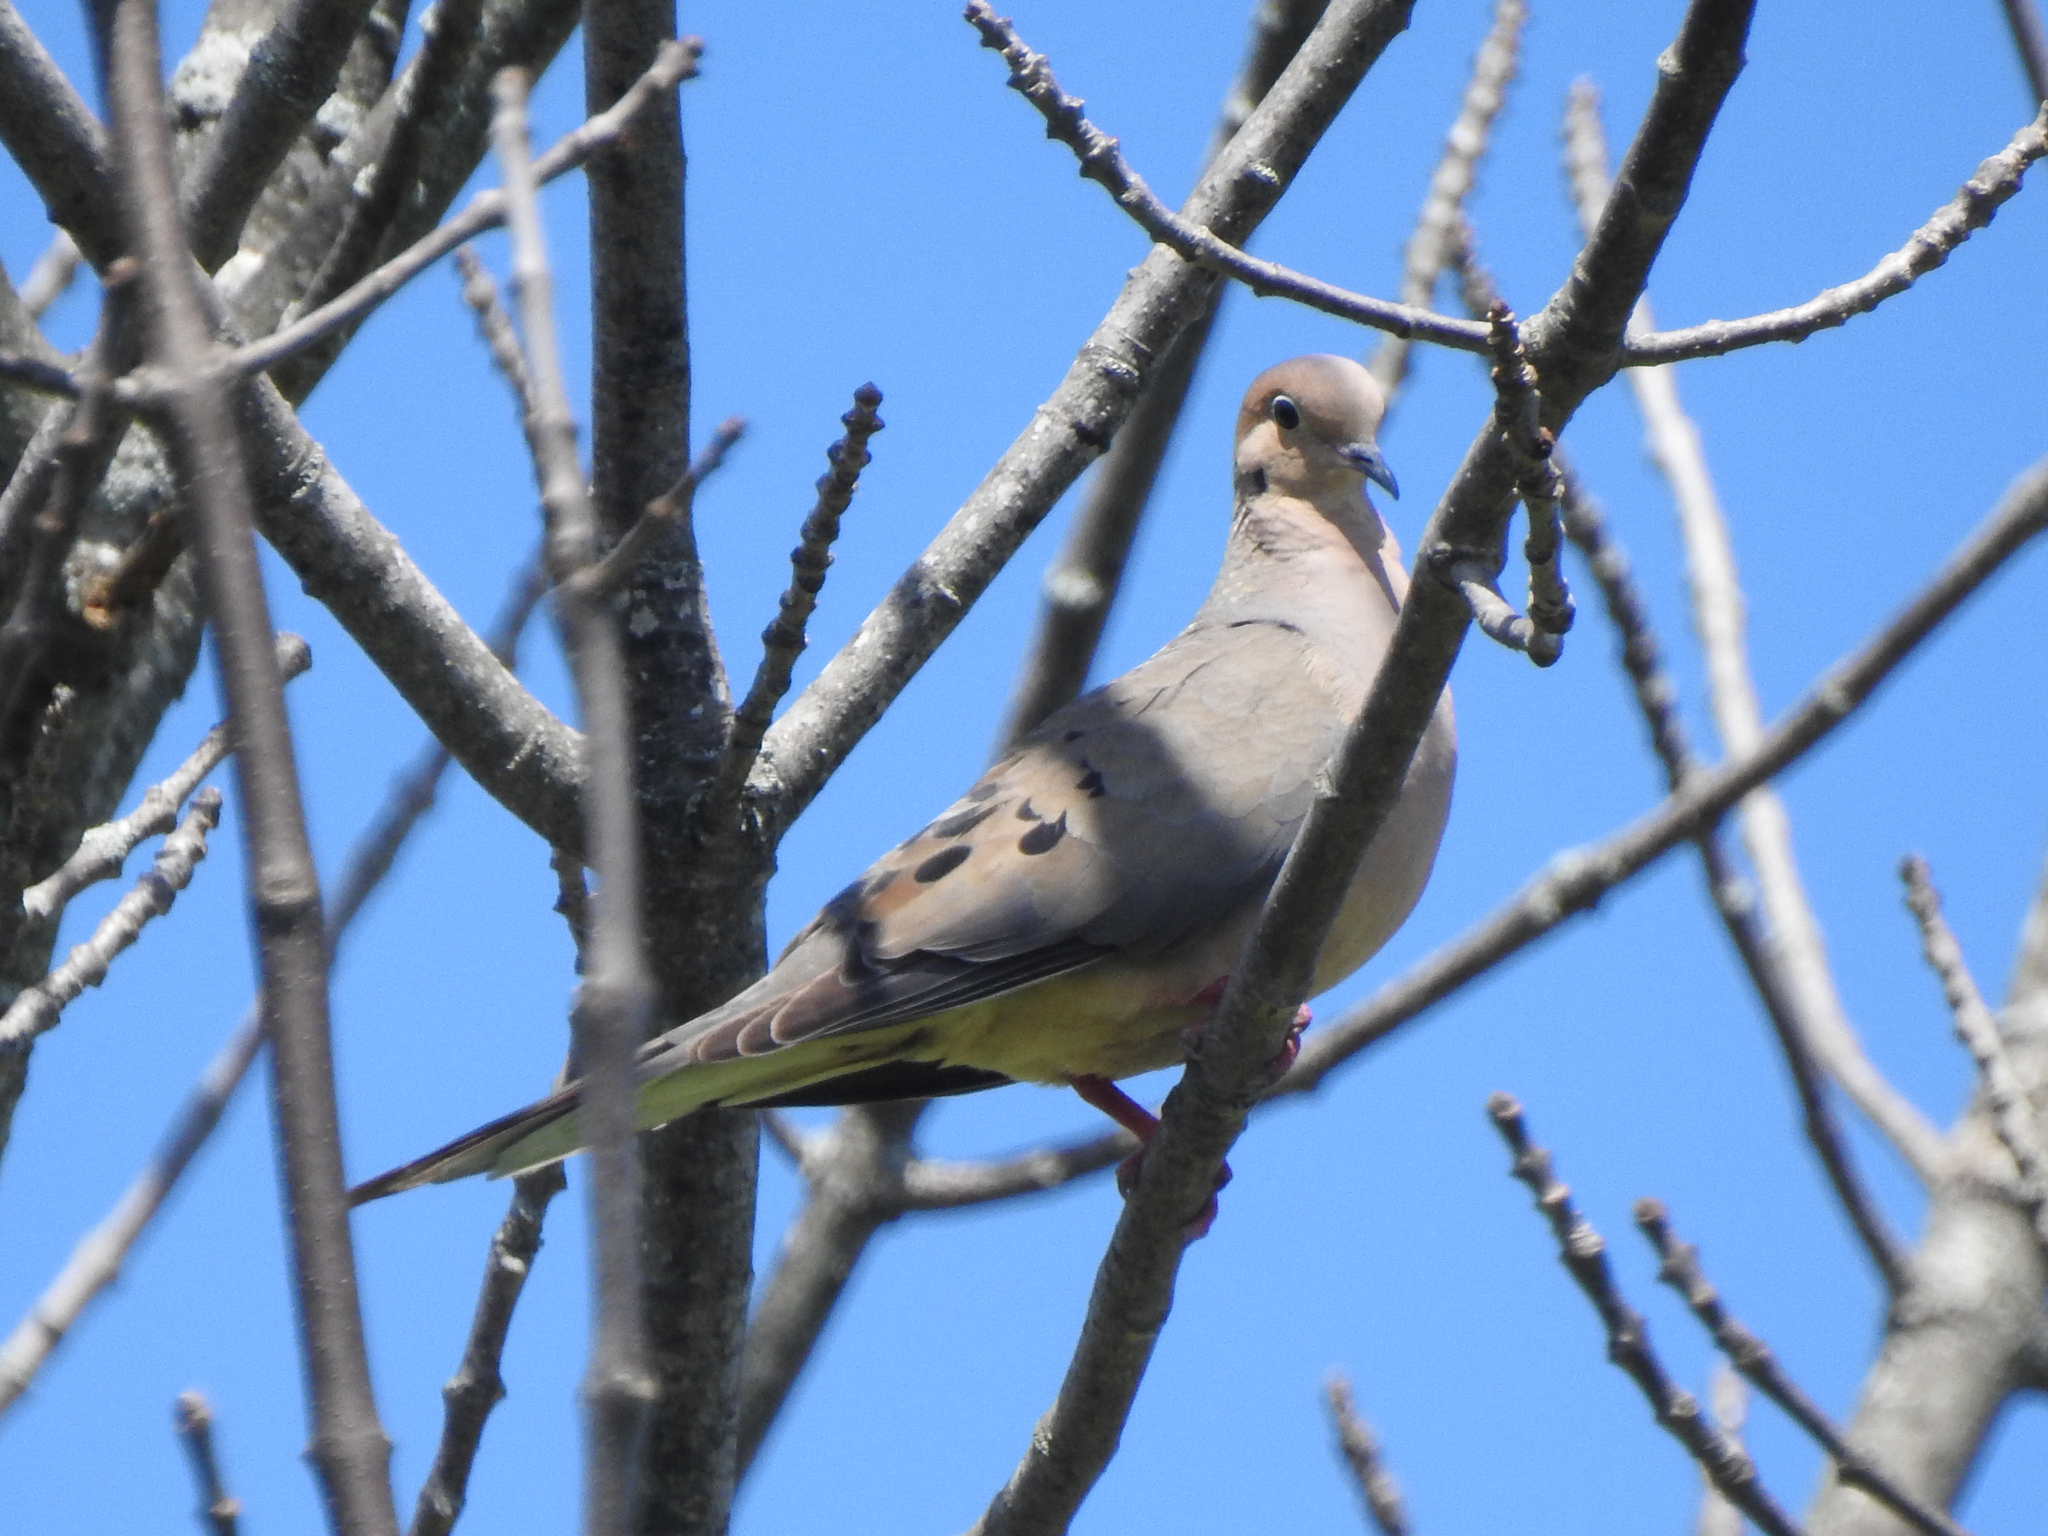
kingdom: Animalia
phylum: Chordata
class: Aves
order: Columbiformes
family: Columbidae
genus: Zenaida
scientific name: Zenaida macroura
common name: Mourning dove
